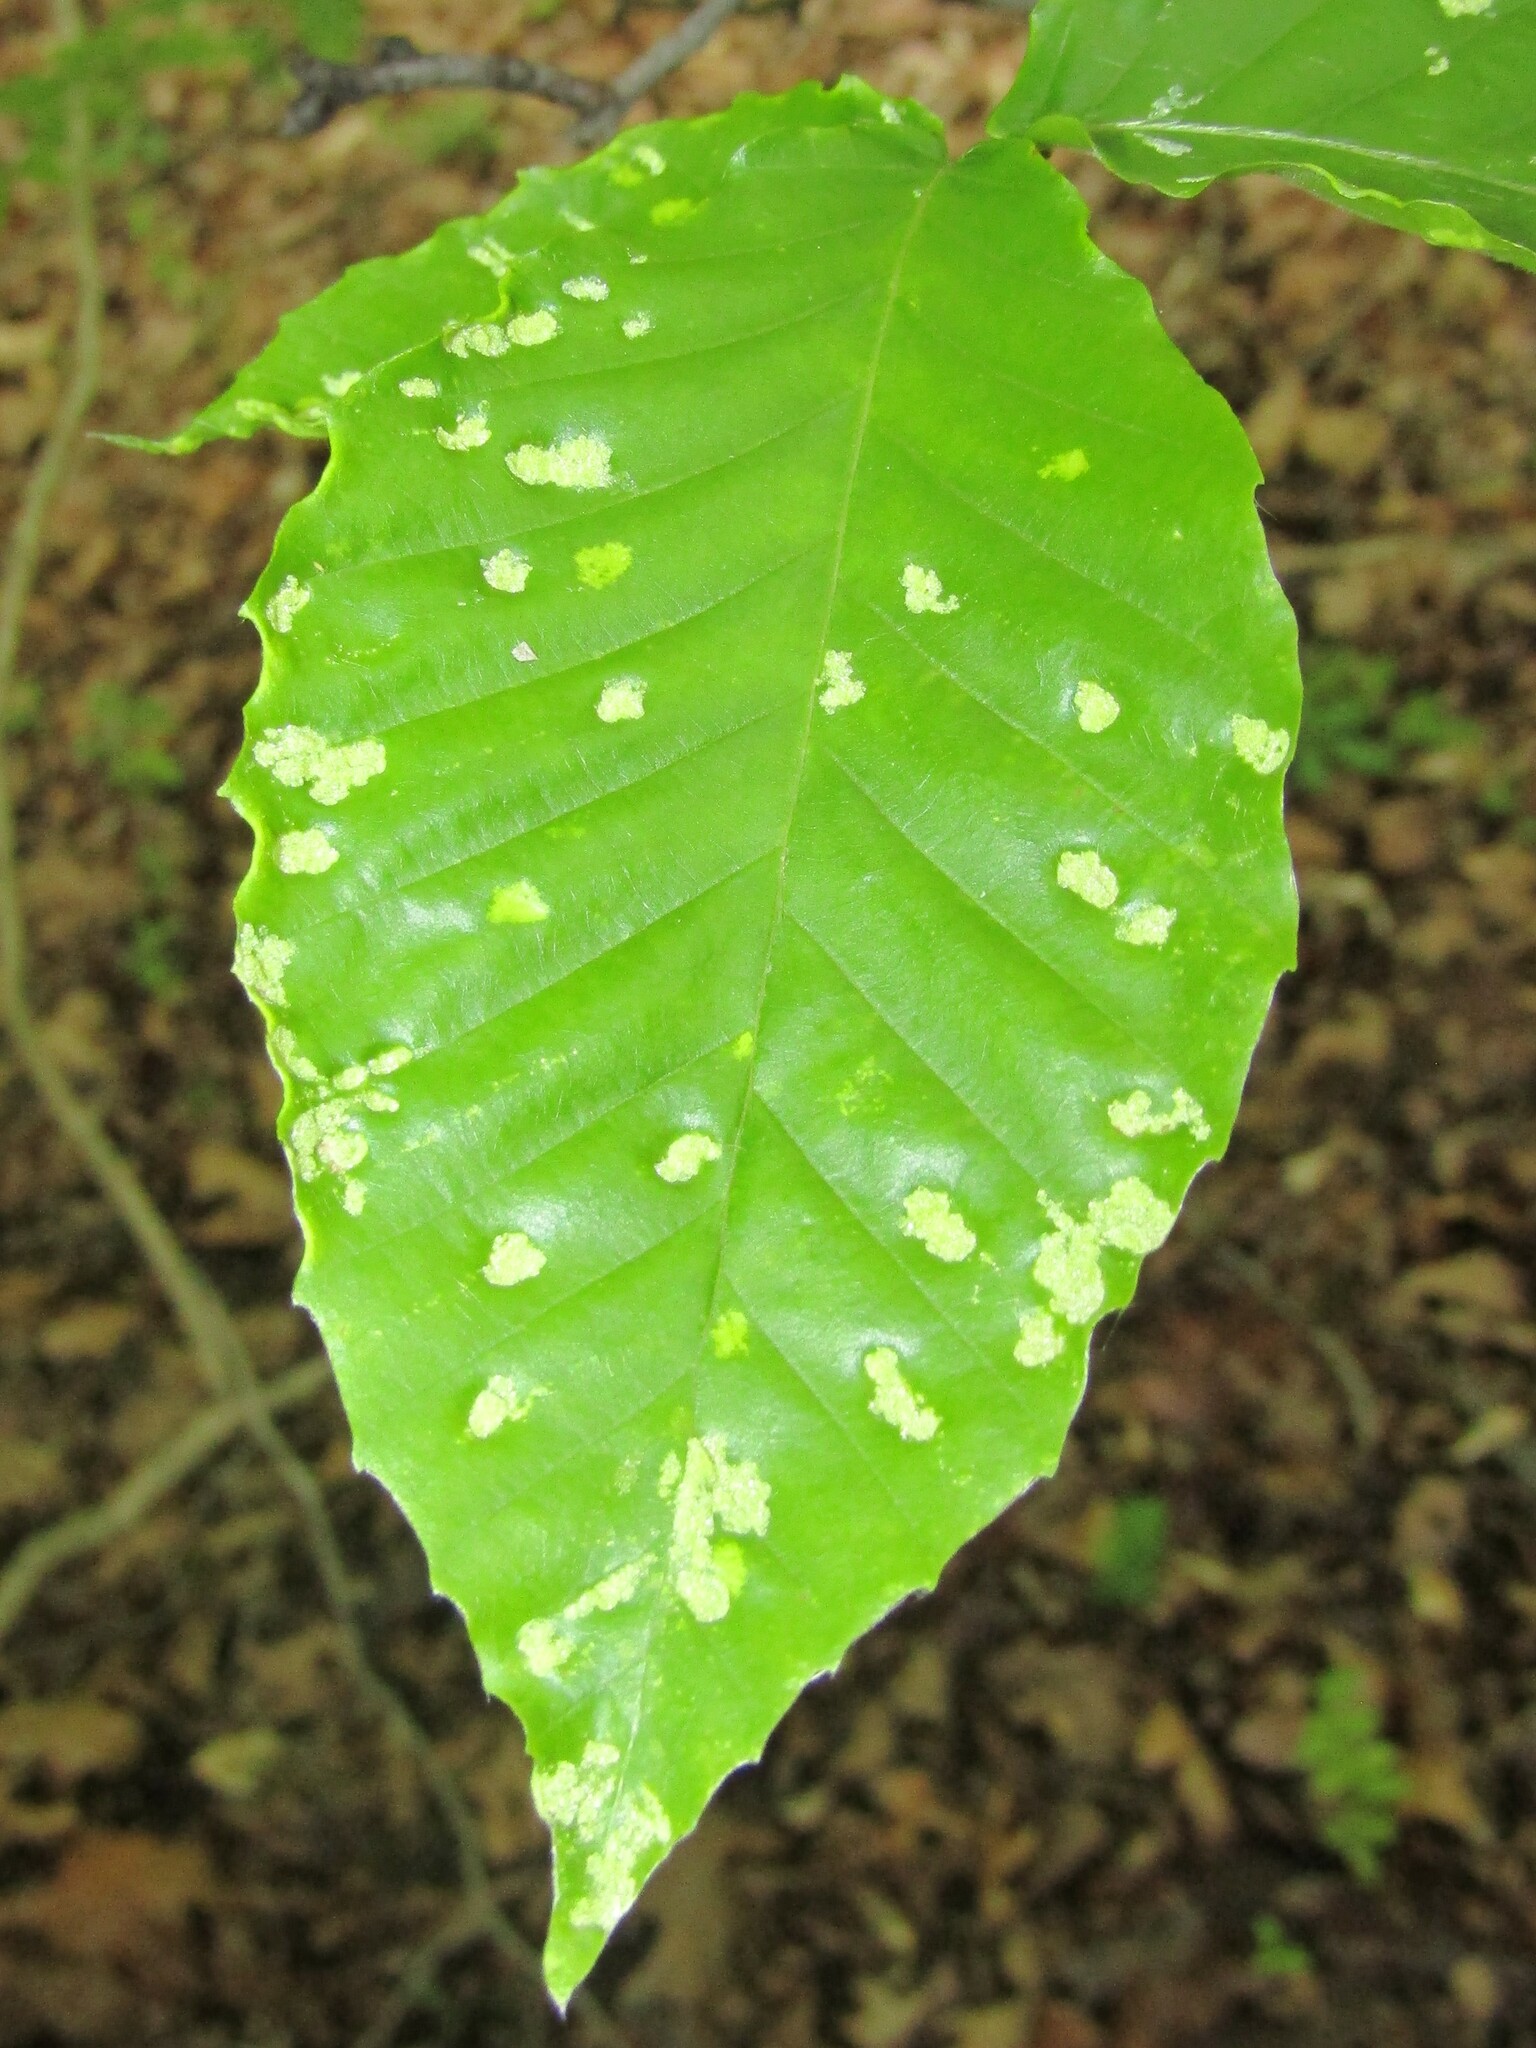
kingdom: Animalia
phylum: Arthropoda
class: Arachnida
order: Trombidiformes
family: Eriophyidae
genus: Acalitus
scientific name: Acalitus
